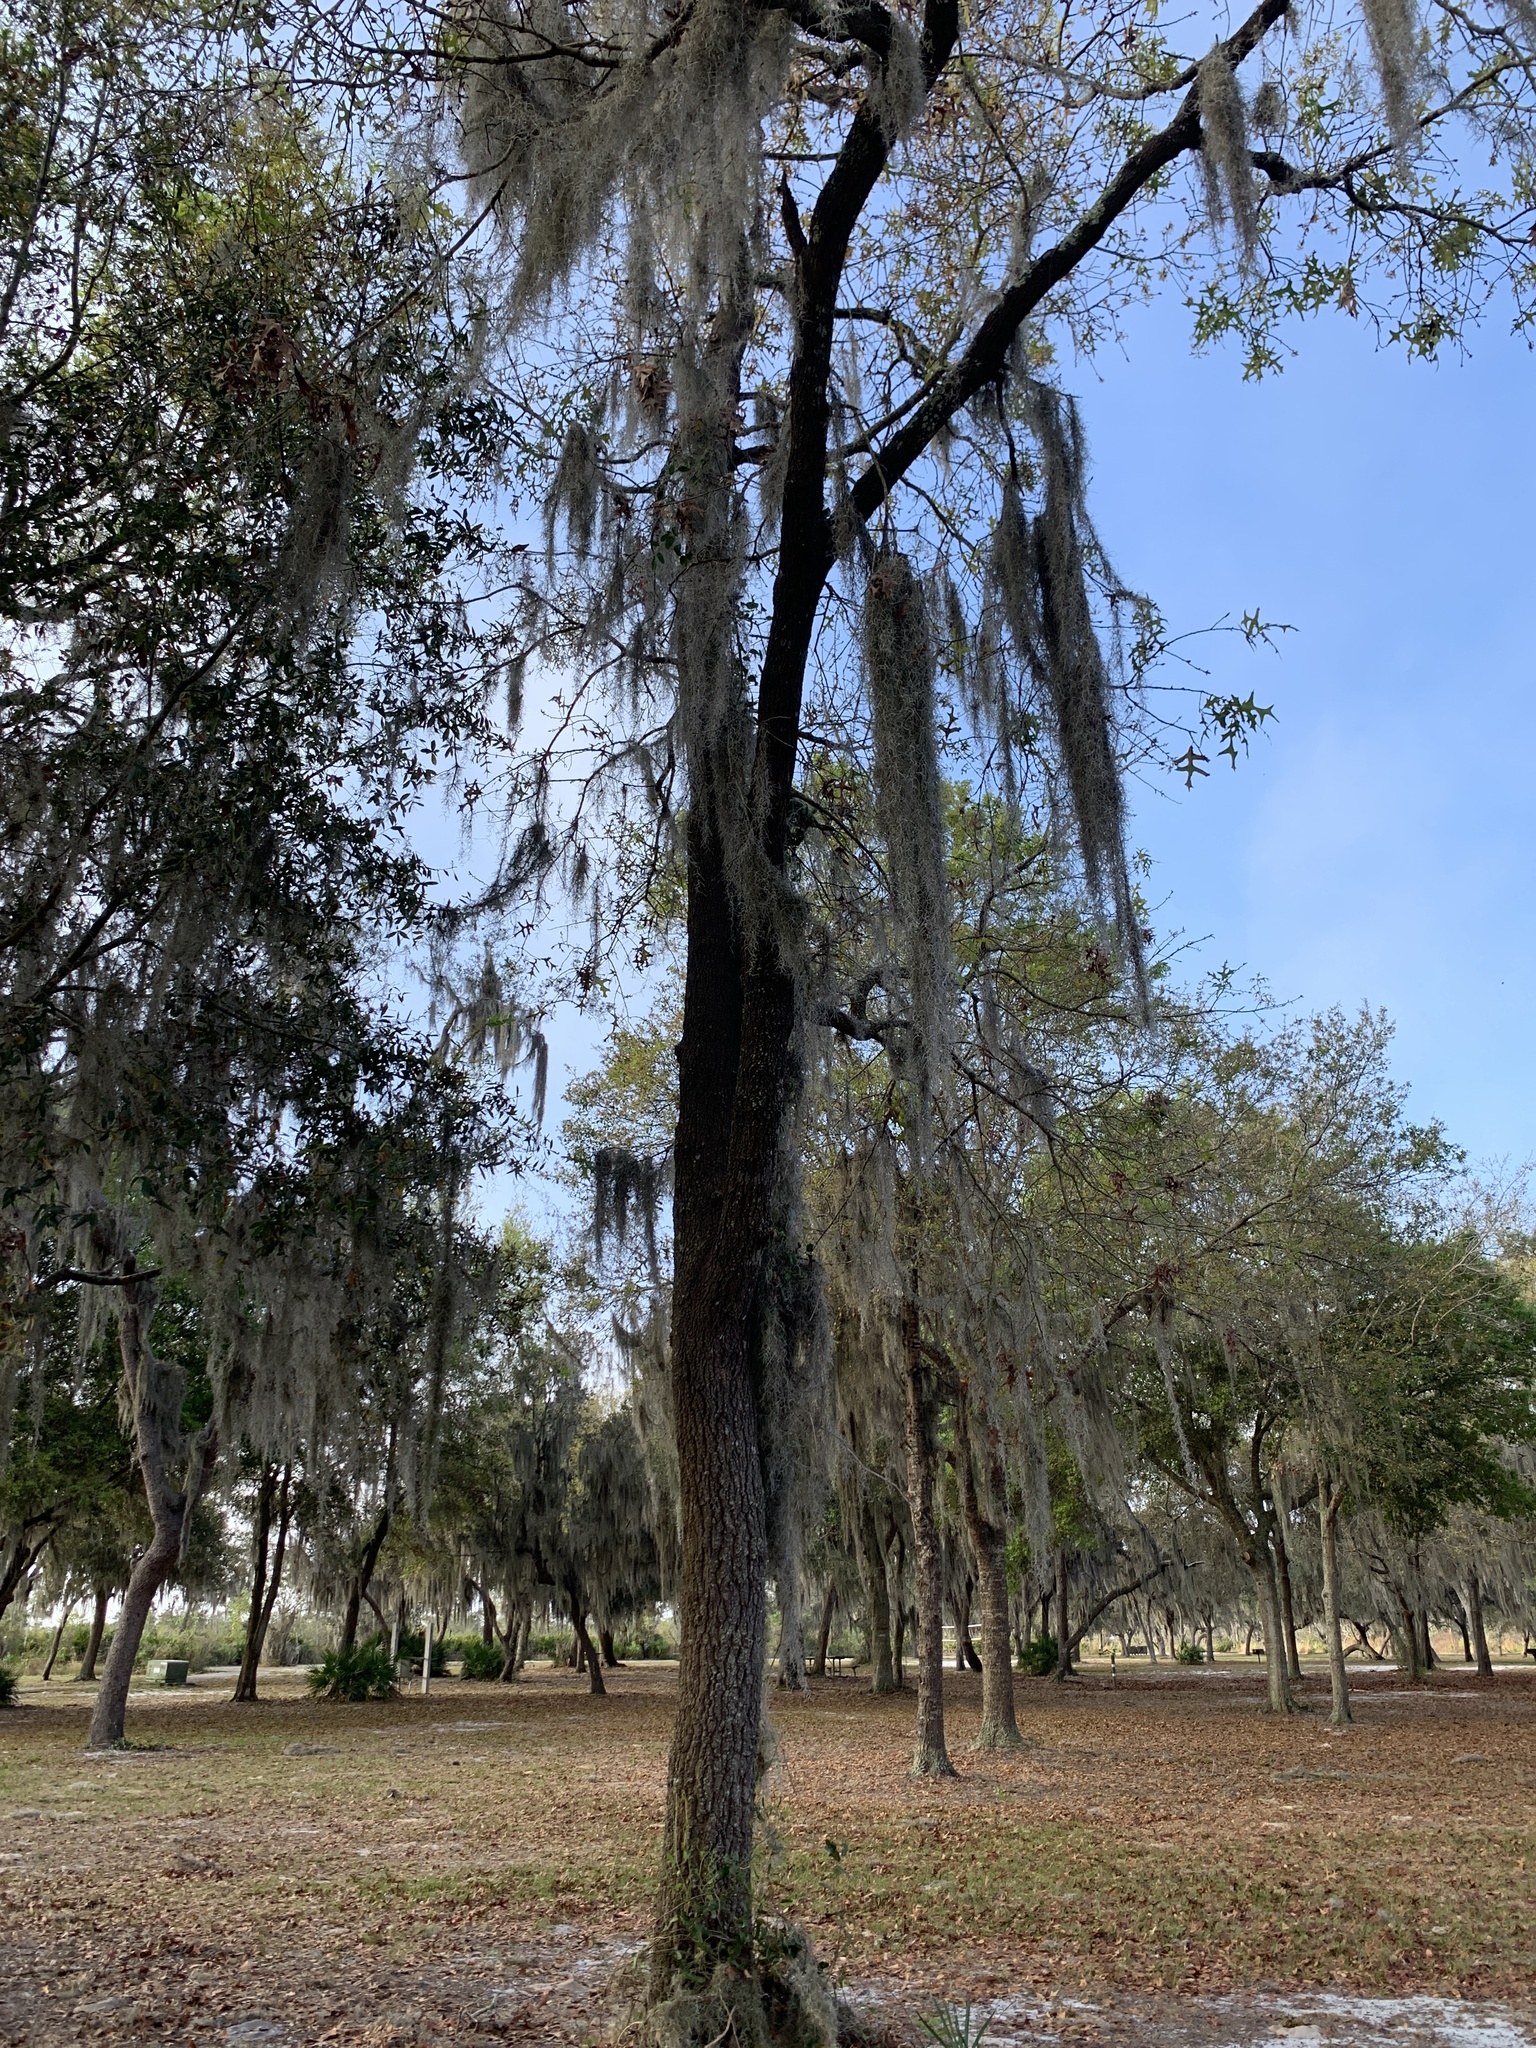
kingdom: Plantae
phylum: Tracheophyta
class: Magnoliopsida
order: Fagales
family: Fagaceae
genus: Quercus
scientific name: Quercus laevis
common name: Turkey oak
